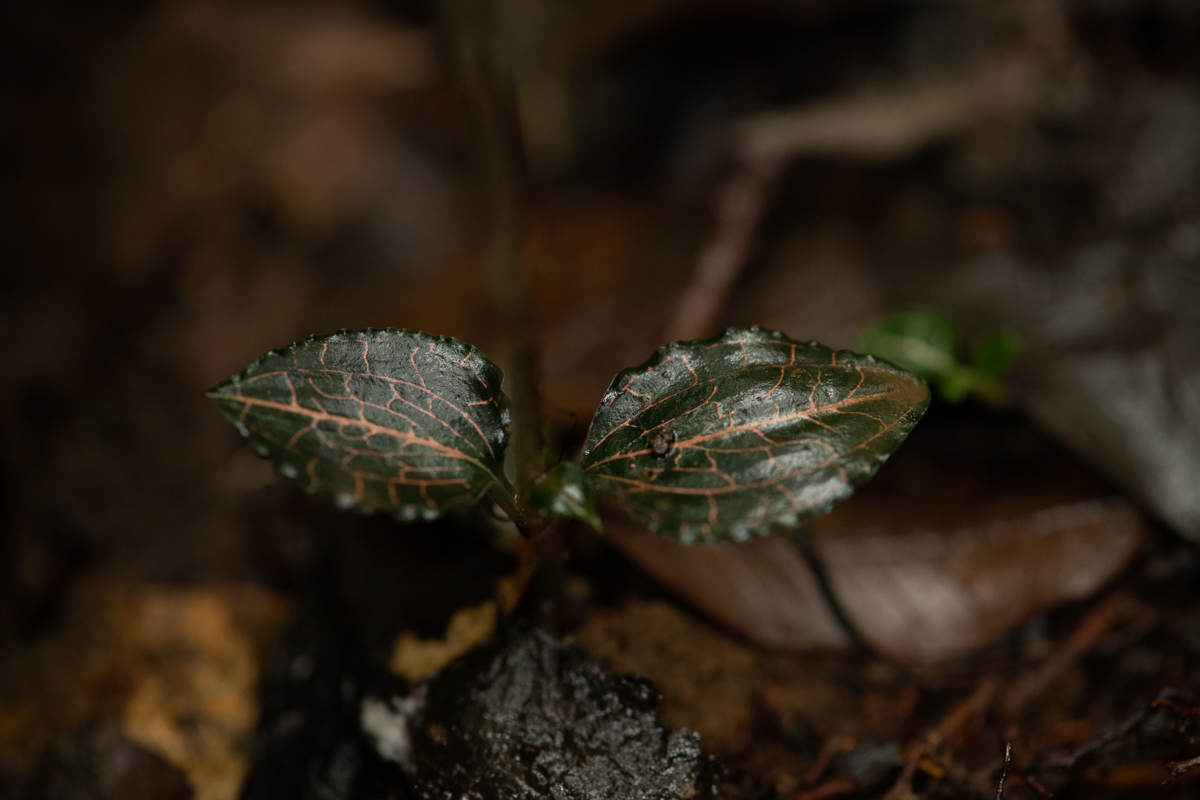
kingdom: Plantae
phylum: Tracheophyta
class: Liliopsida
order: Asparagales
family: Orchidaceae
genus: Anoectochilus
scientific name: Anoectochilus roxburghii
